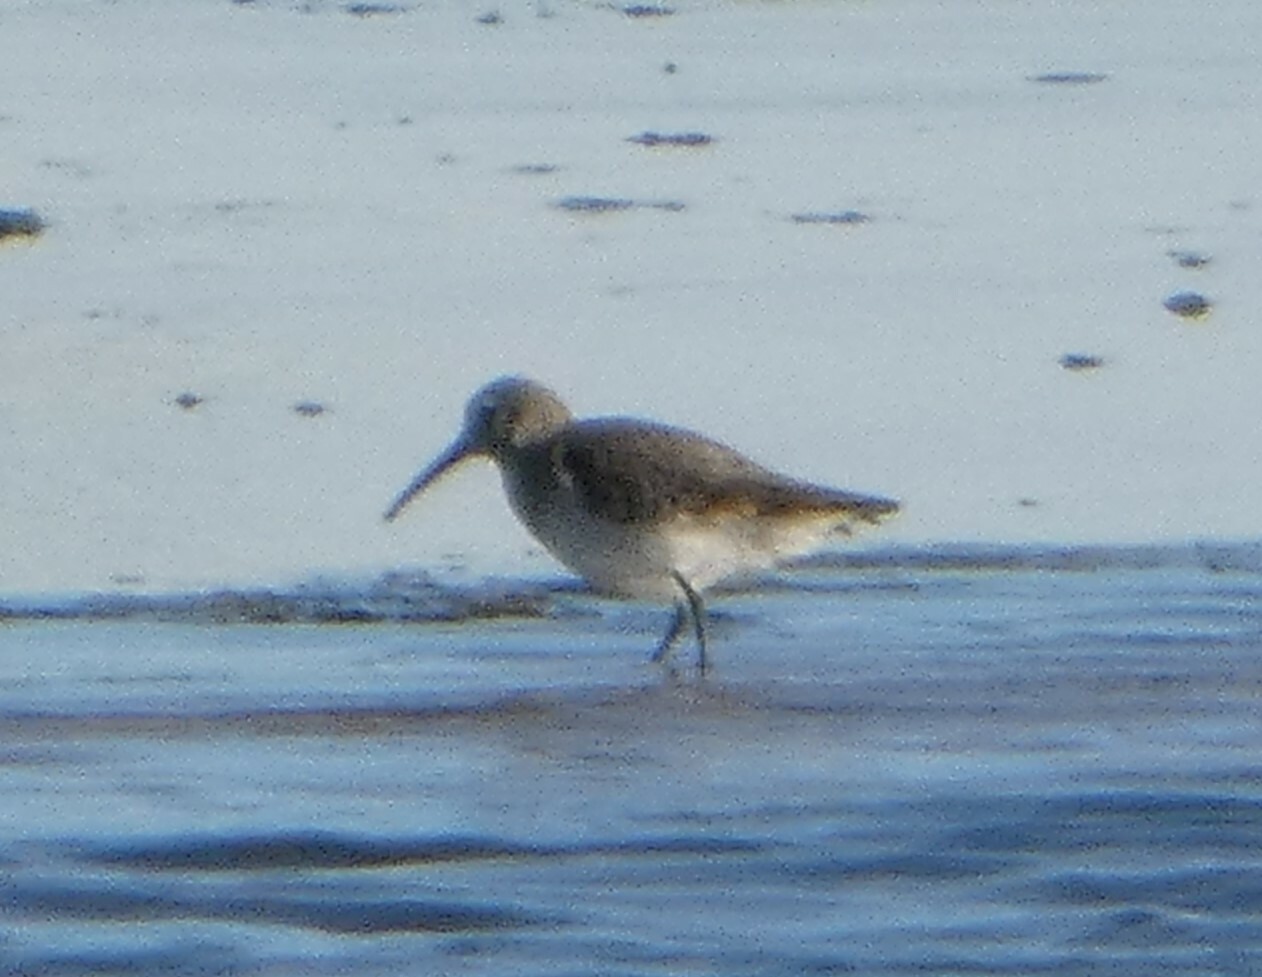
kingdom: Animalia
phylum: Chordata
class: Aves
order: Charadriiformes
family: Scolopacidae
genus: Calidris
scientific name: Calidris alpina
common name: Dunlin
